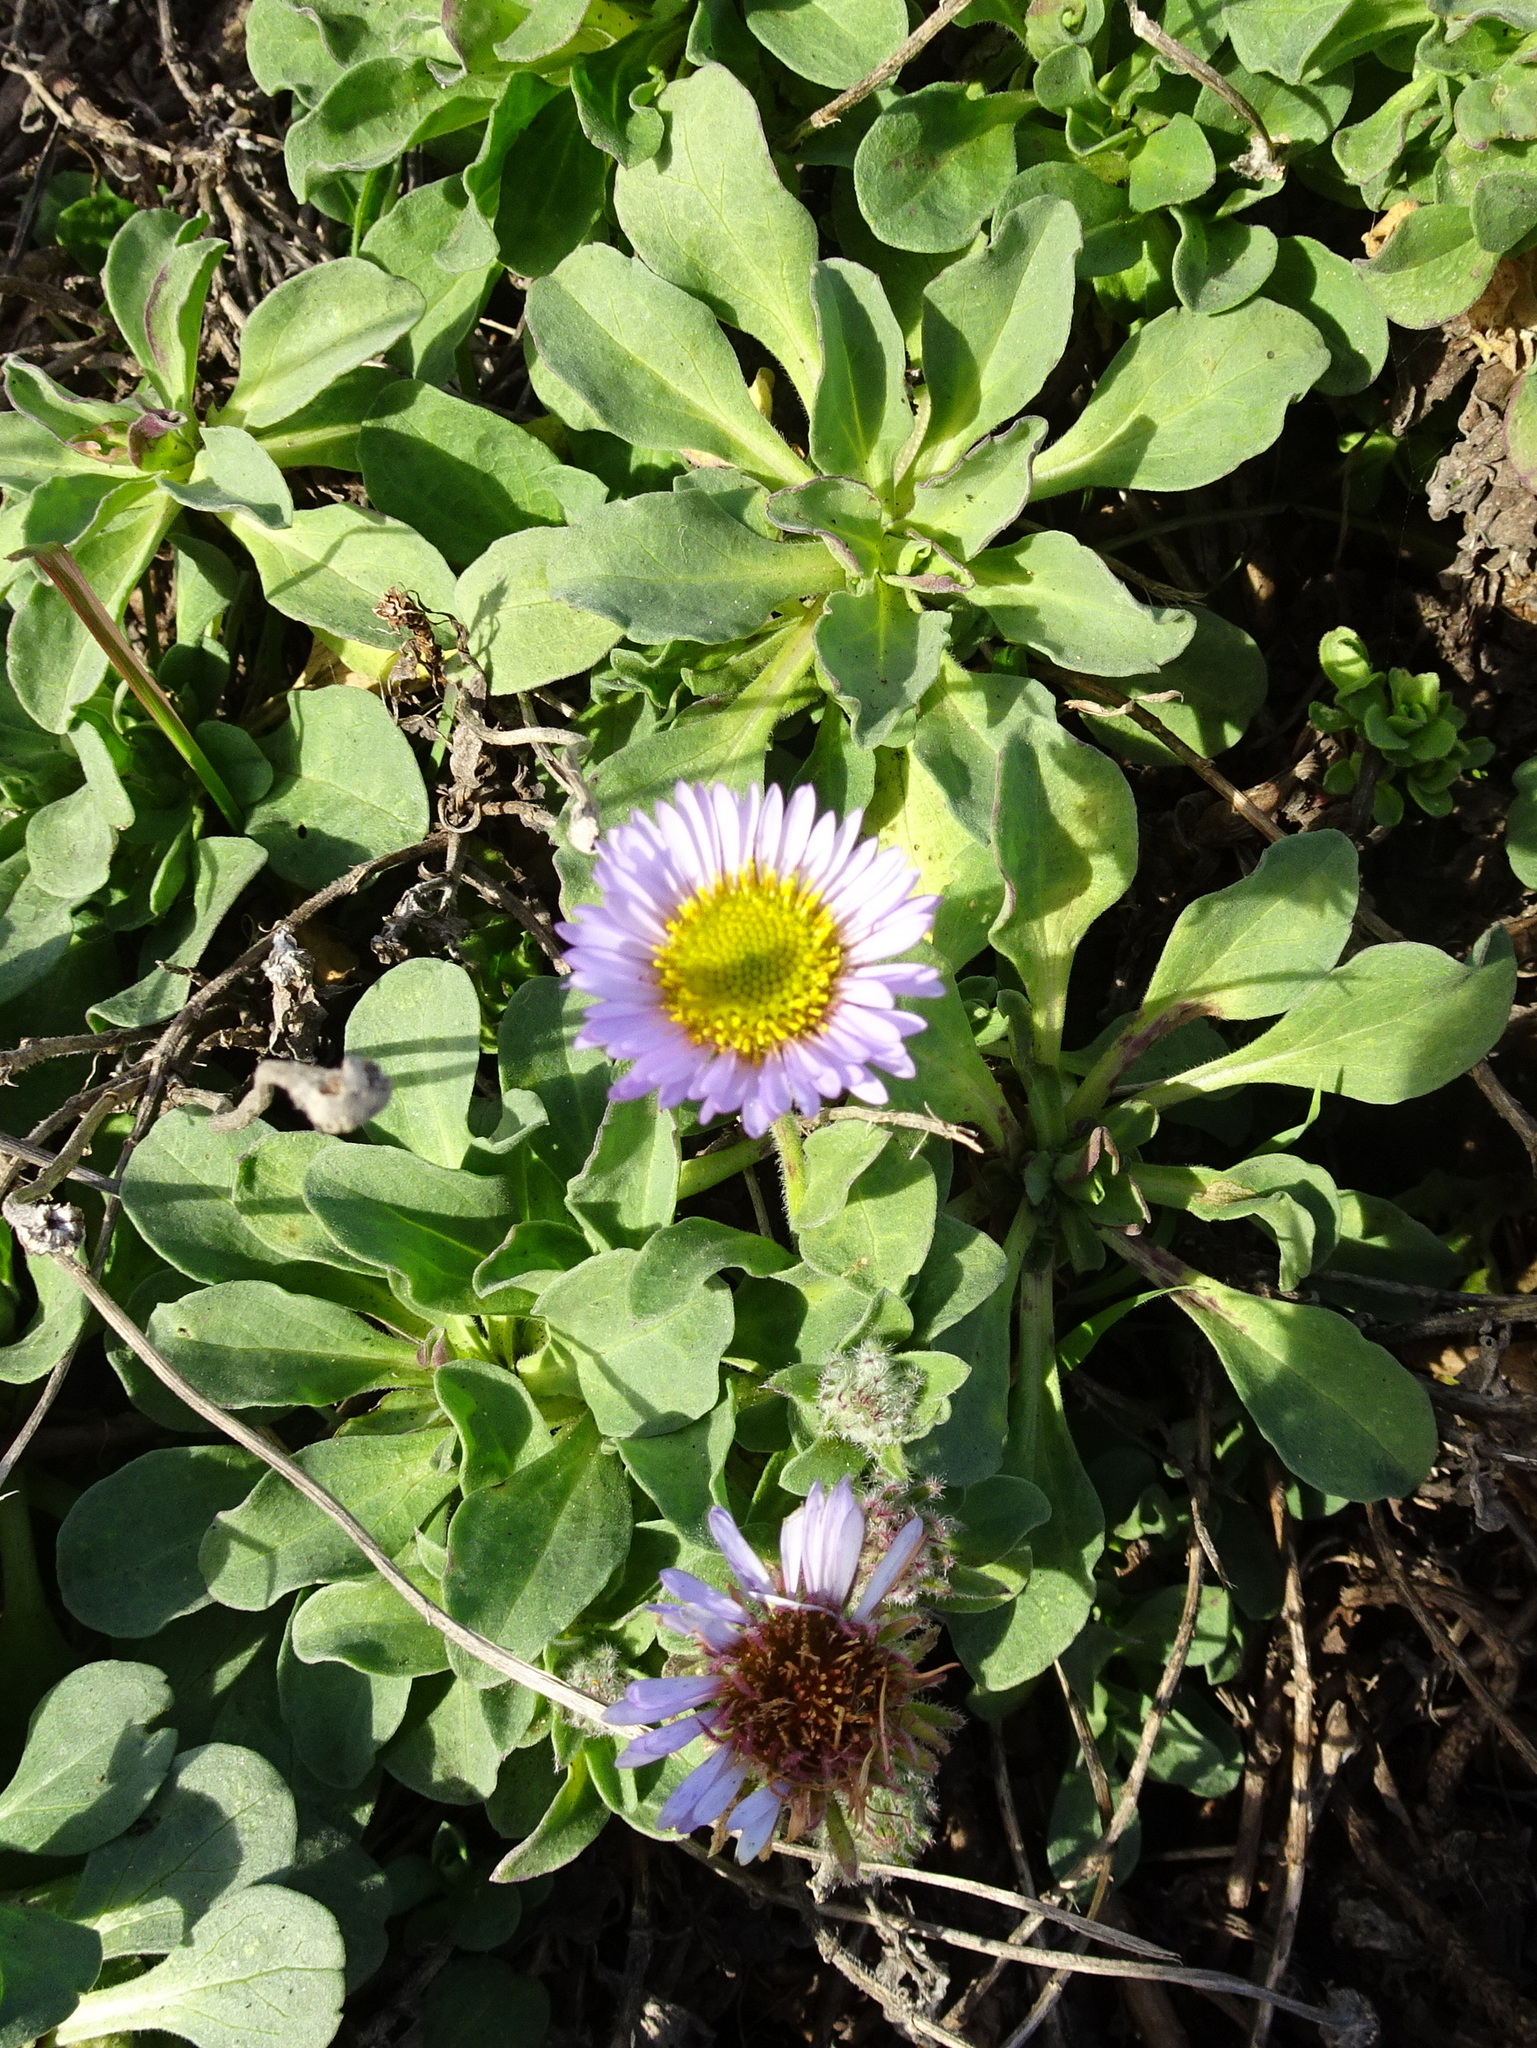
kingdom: Plantae
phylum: Tracheophyta
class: Magnoliopsida
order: Asterales
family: Asteraceae
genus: Erigeron
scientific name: Erigeron glaucus
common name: Seaside daisy
